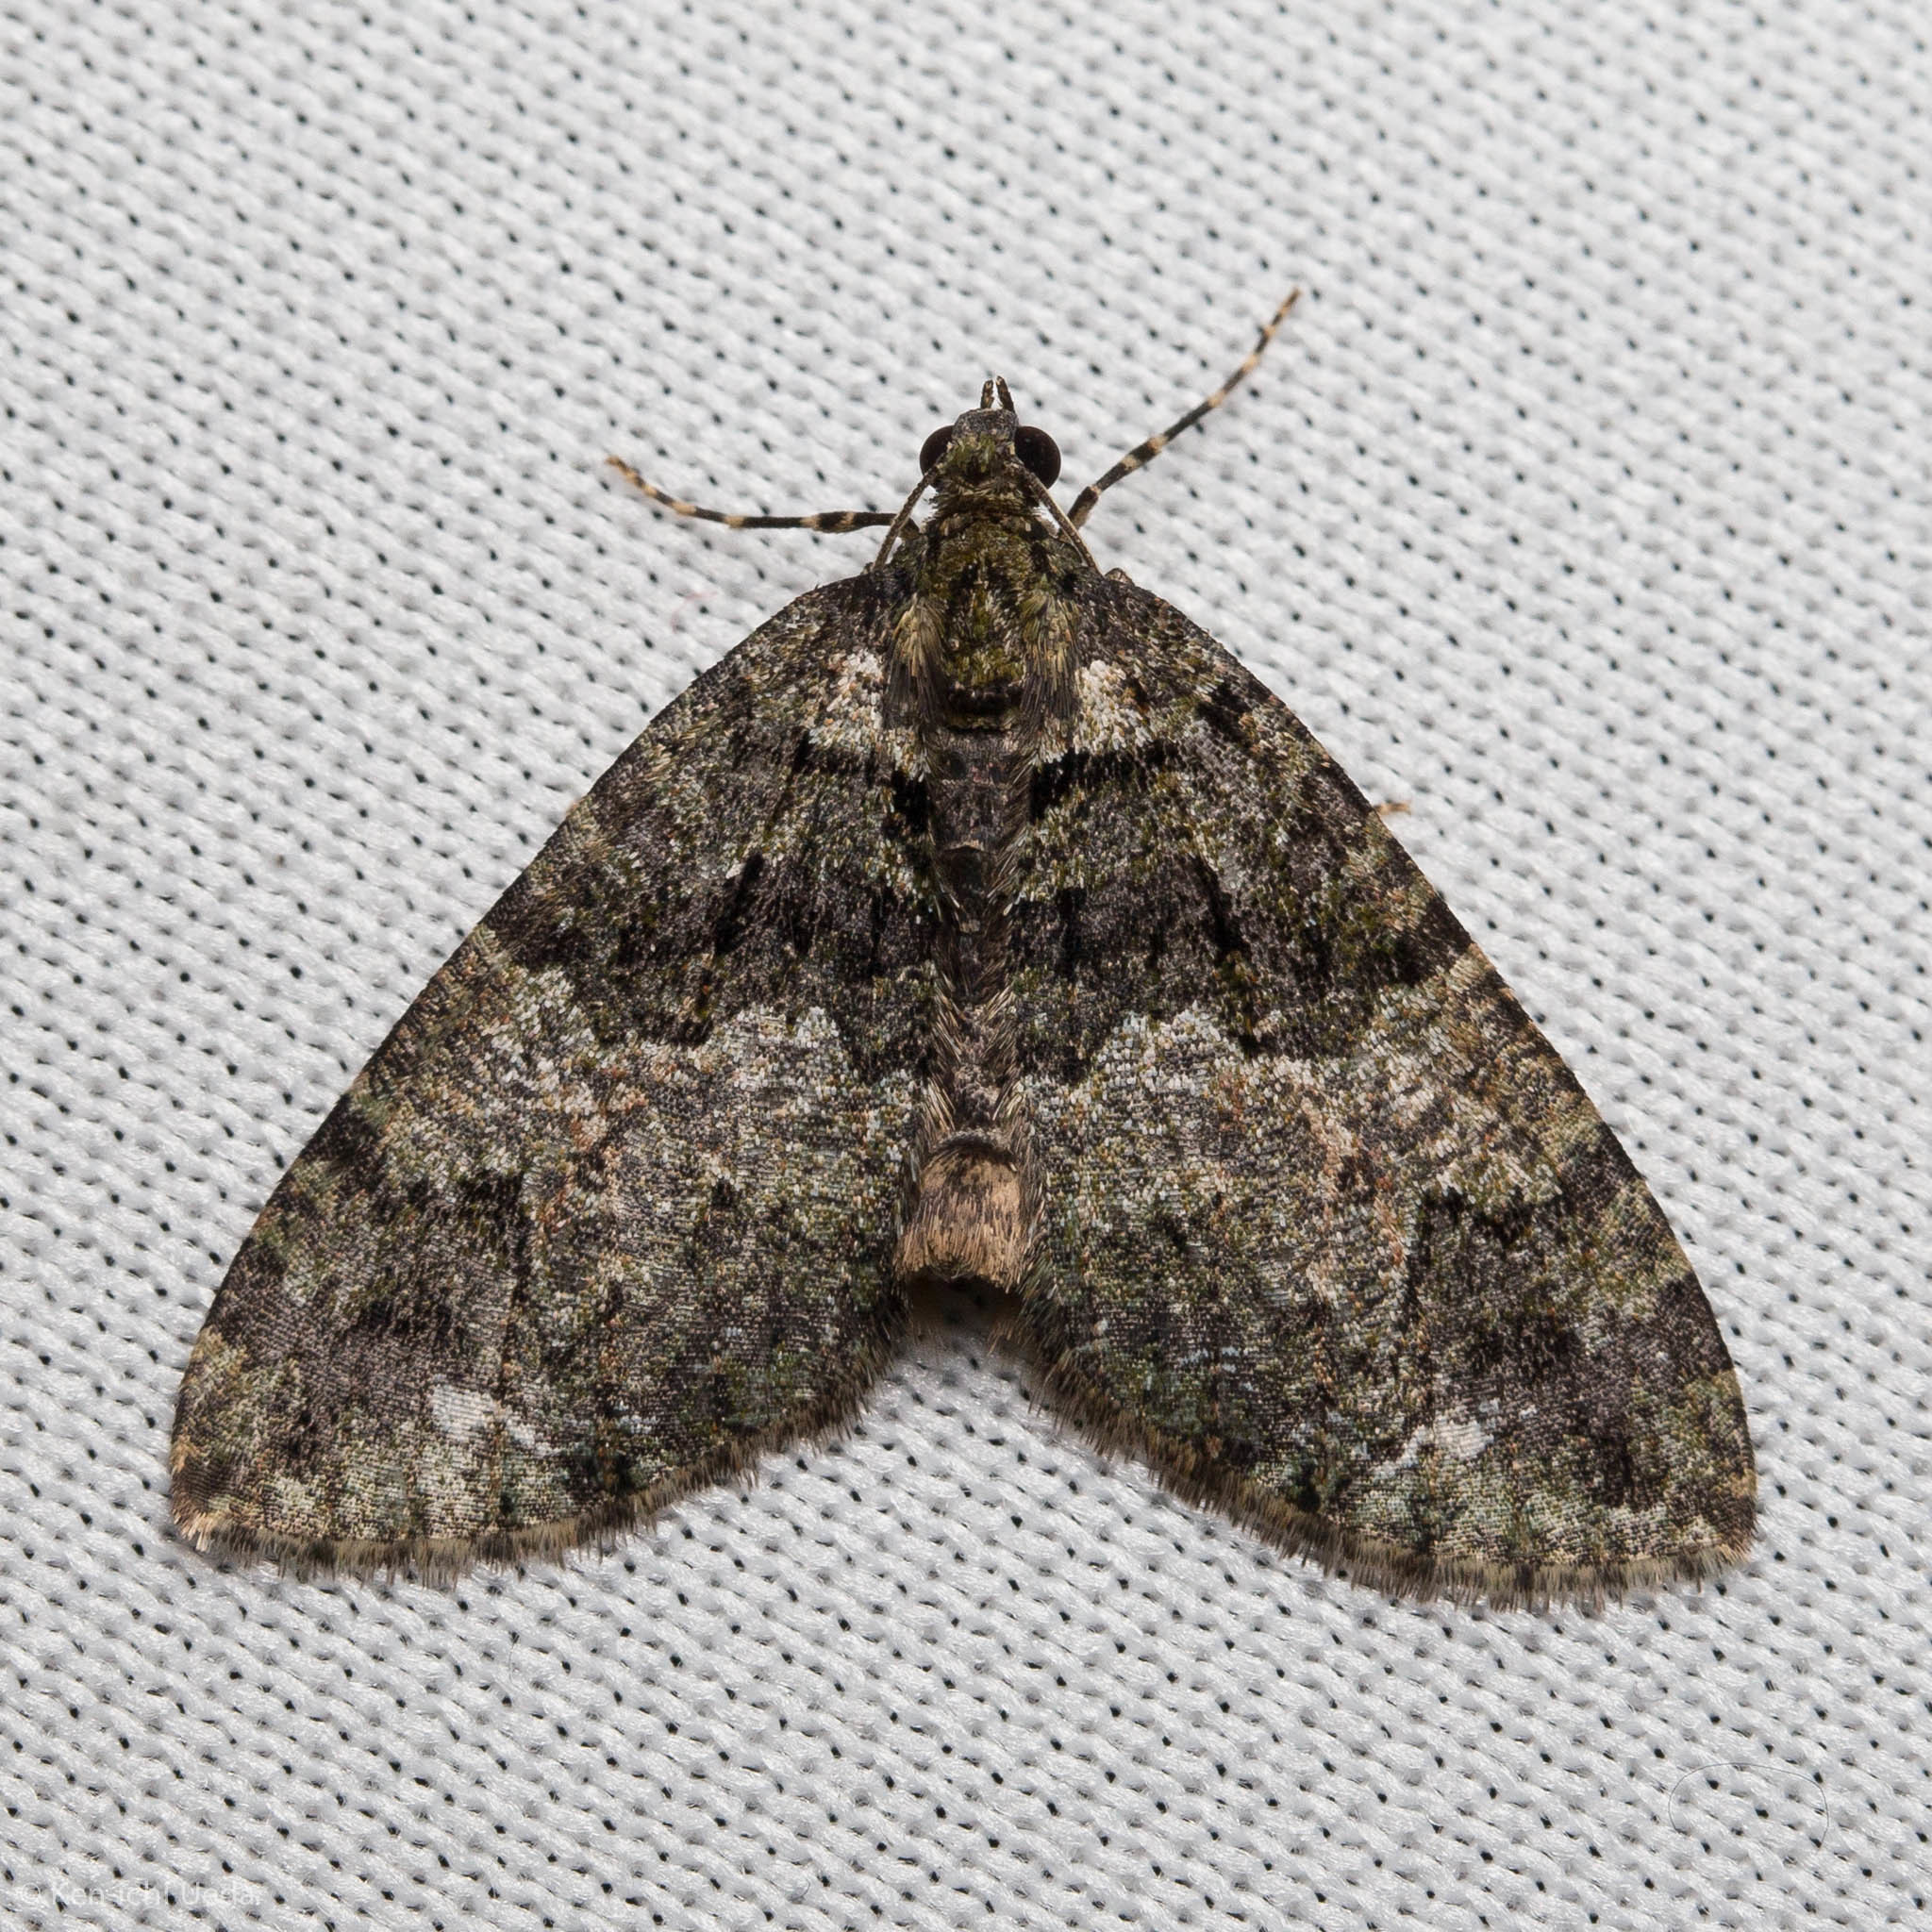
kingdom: Animalia
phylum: Arthropoda
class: Insecta
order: Lepidoptera
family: Geometridae
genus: Hydriomena
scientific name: Hydriomena albifasciata
